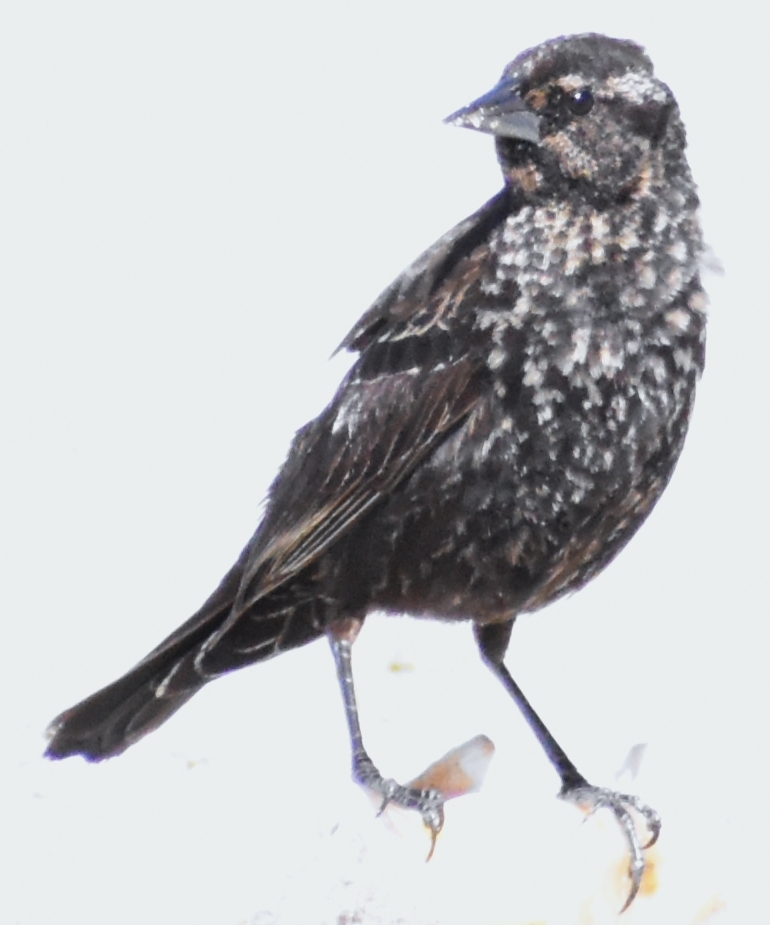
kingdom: Animalia
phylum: Chordata
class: Aves
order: Passeriformes
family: Icteridae
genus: Agelaius
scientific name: Agelaius phoeniceus
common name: Red-winged blackbird
